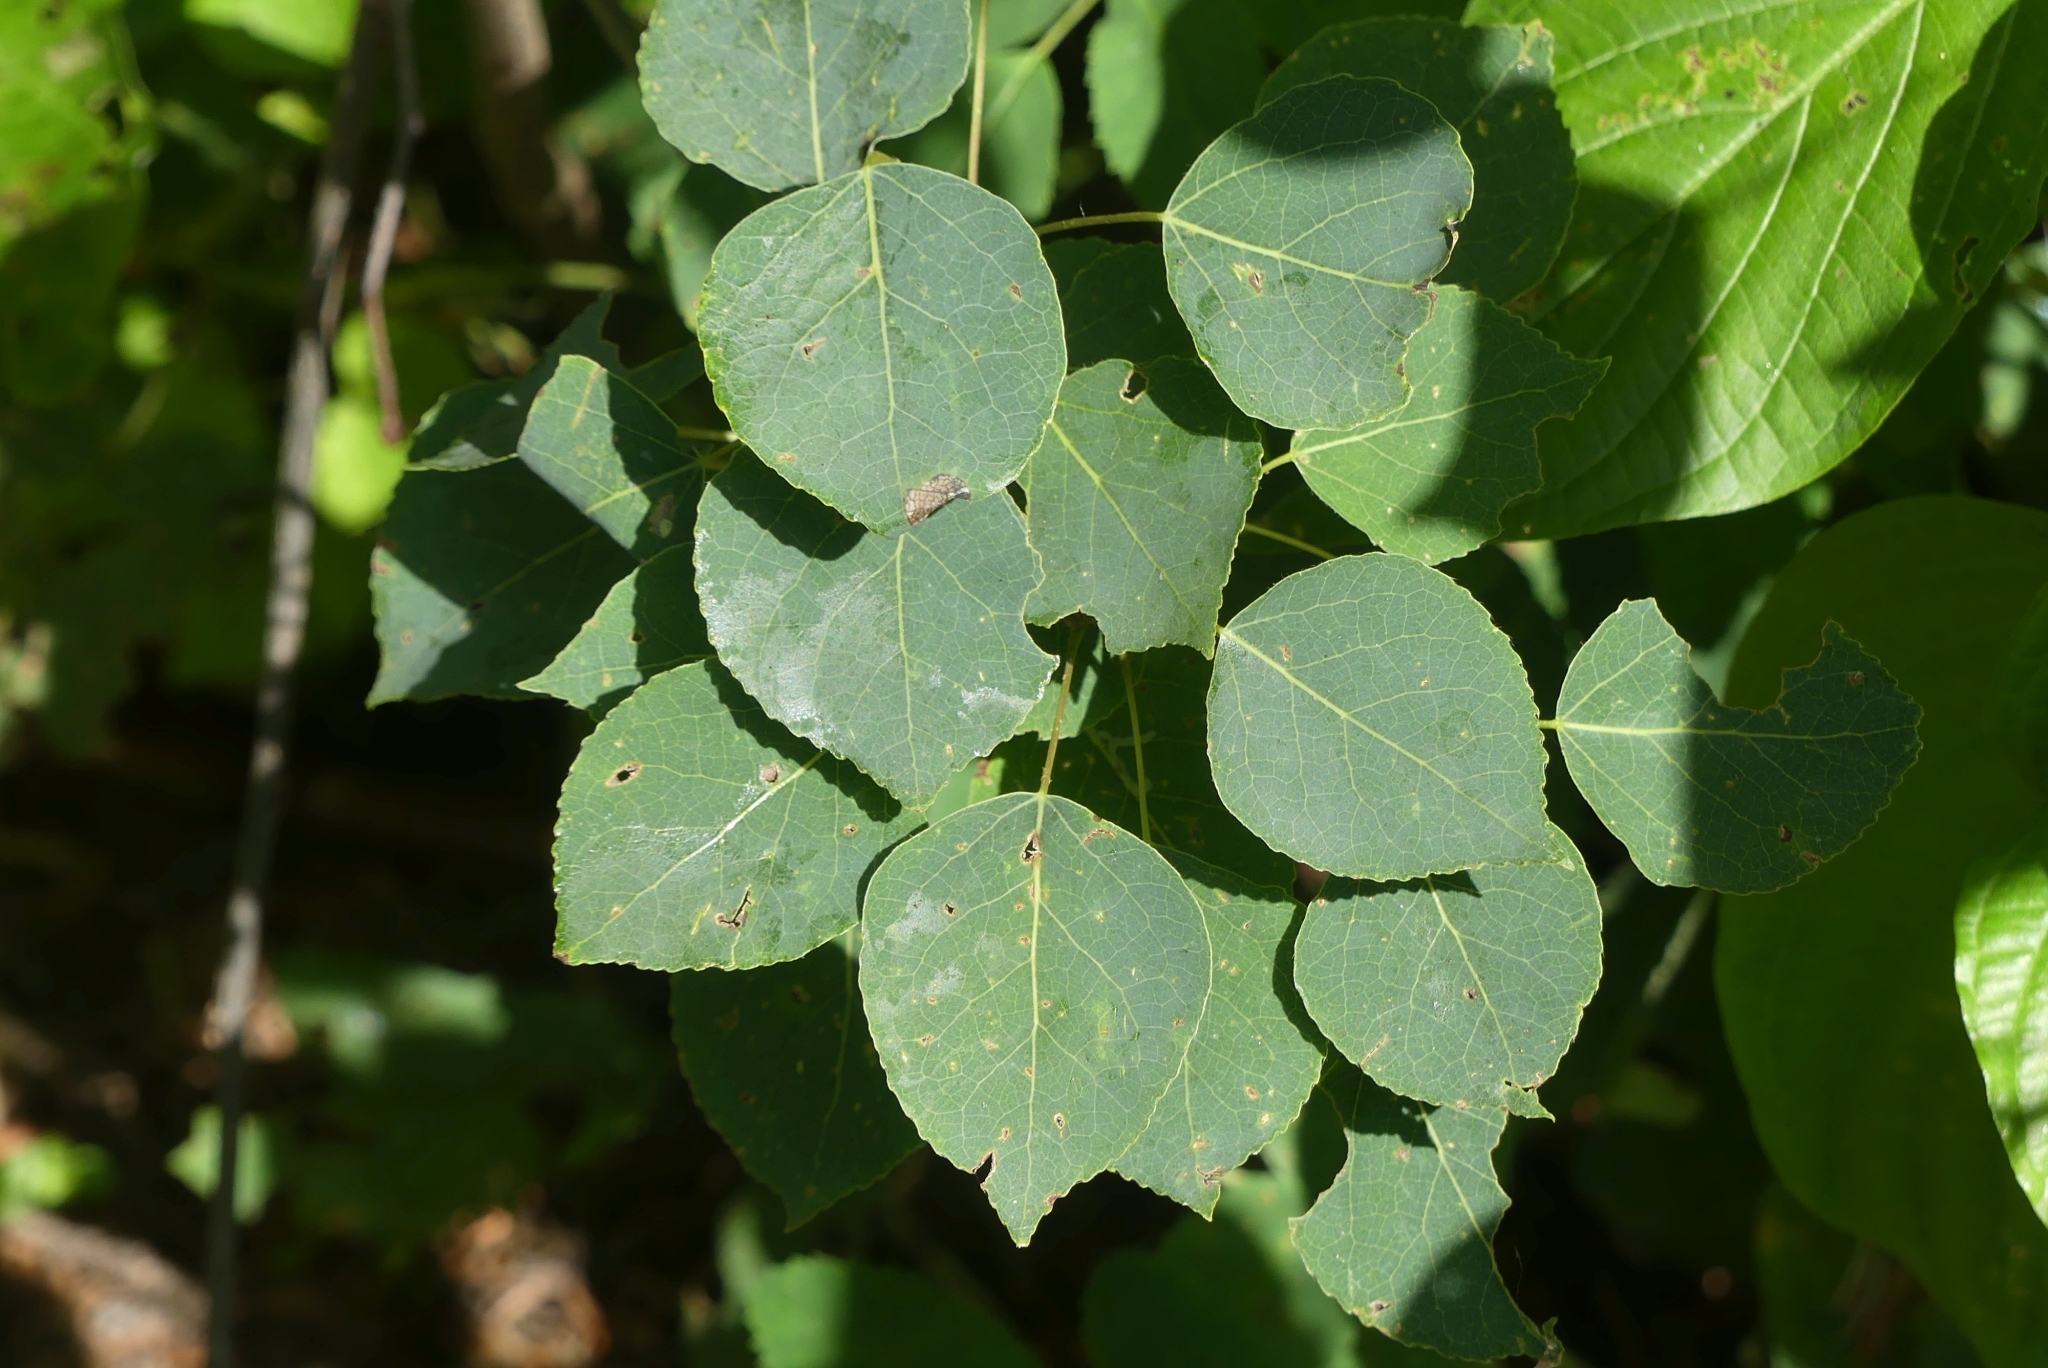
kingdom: Plantae
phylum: Tracheophyta
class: Magnoliopsida
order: Malpighiales
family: Salicaceae
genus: Populus
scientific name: Populus tremuloides
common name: Quaking aspen
